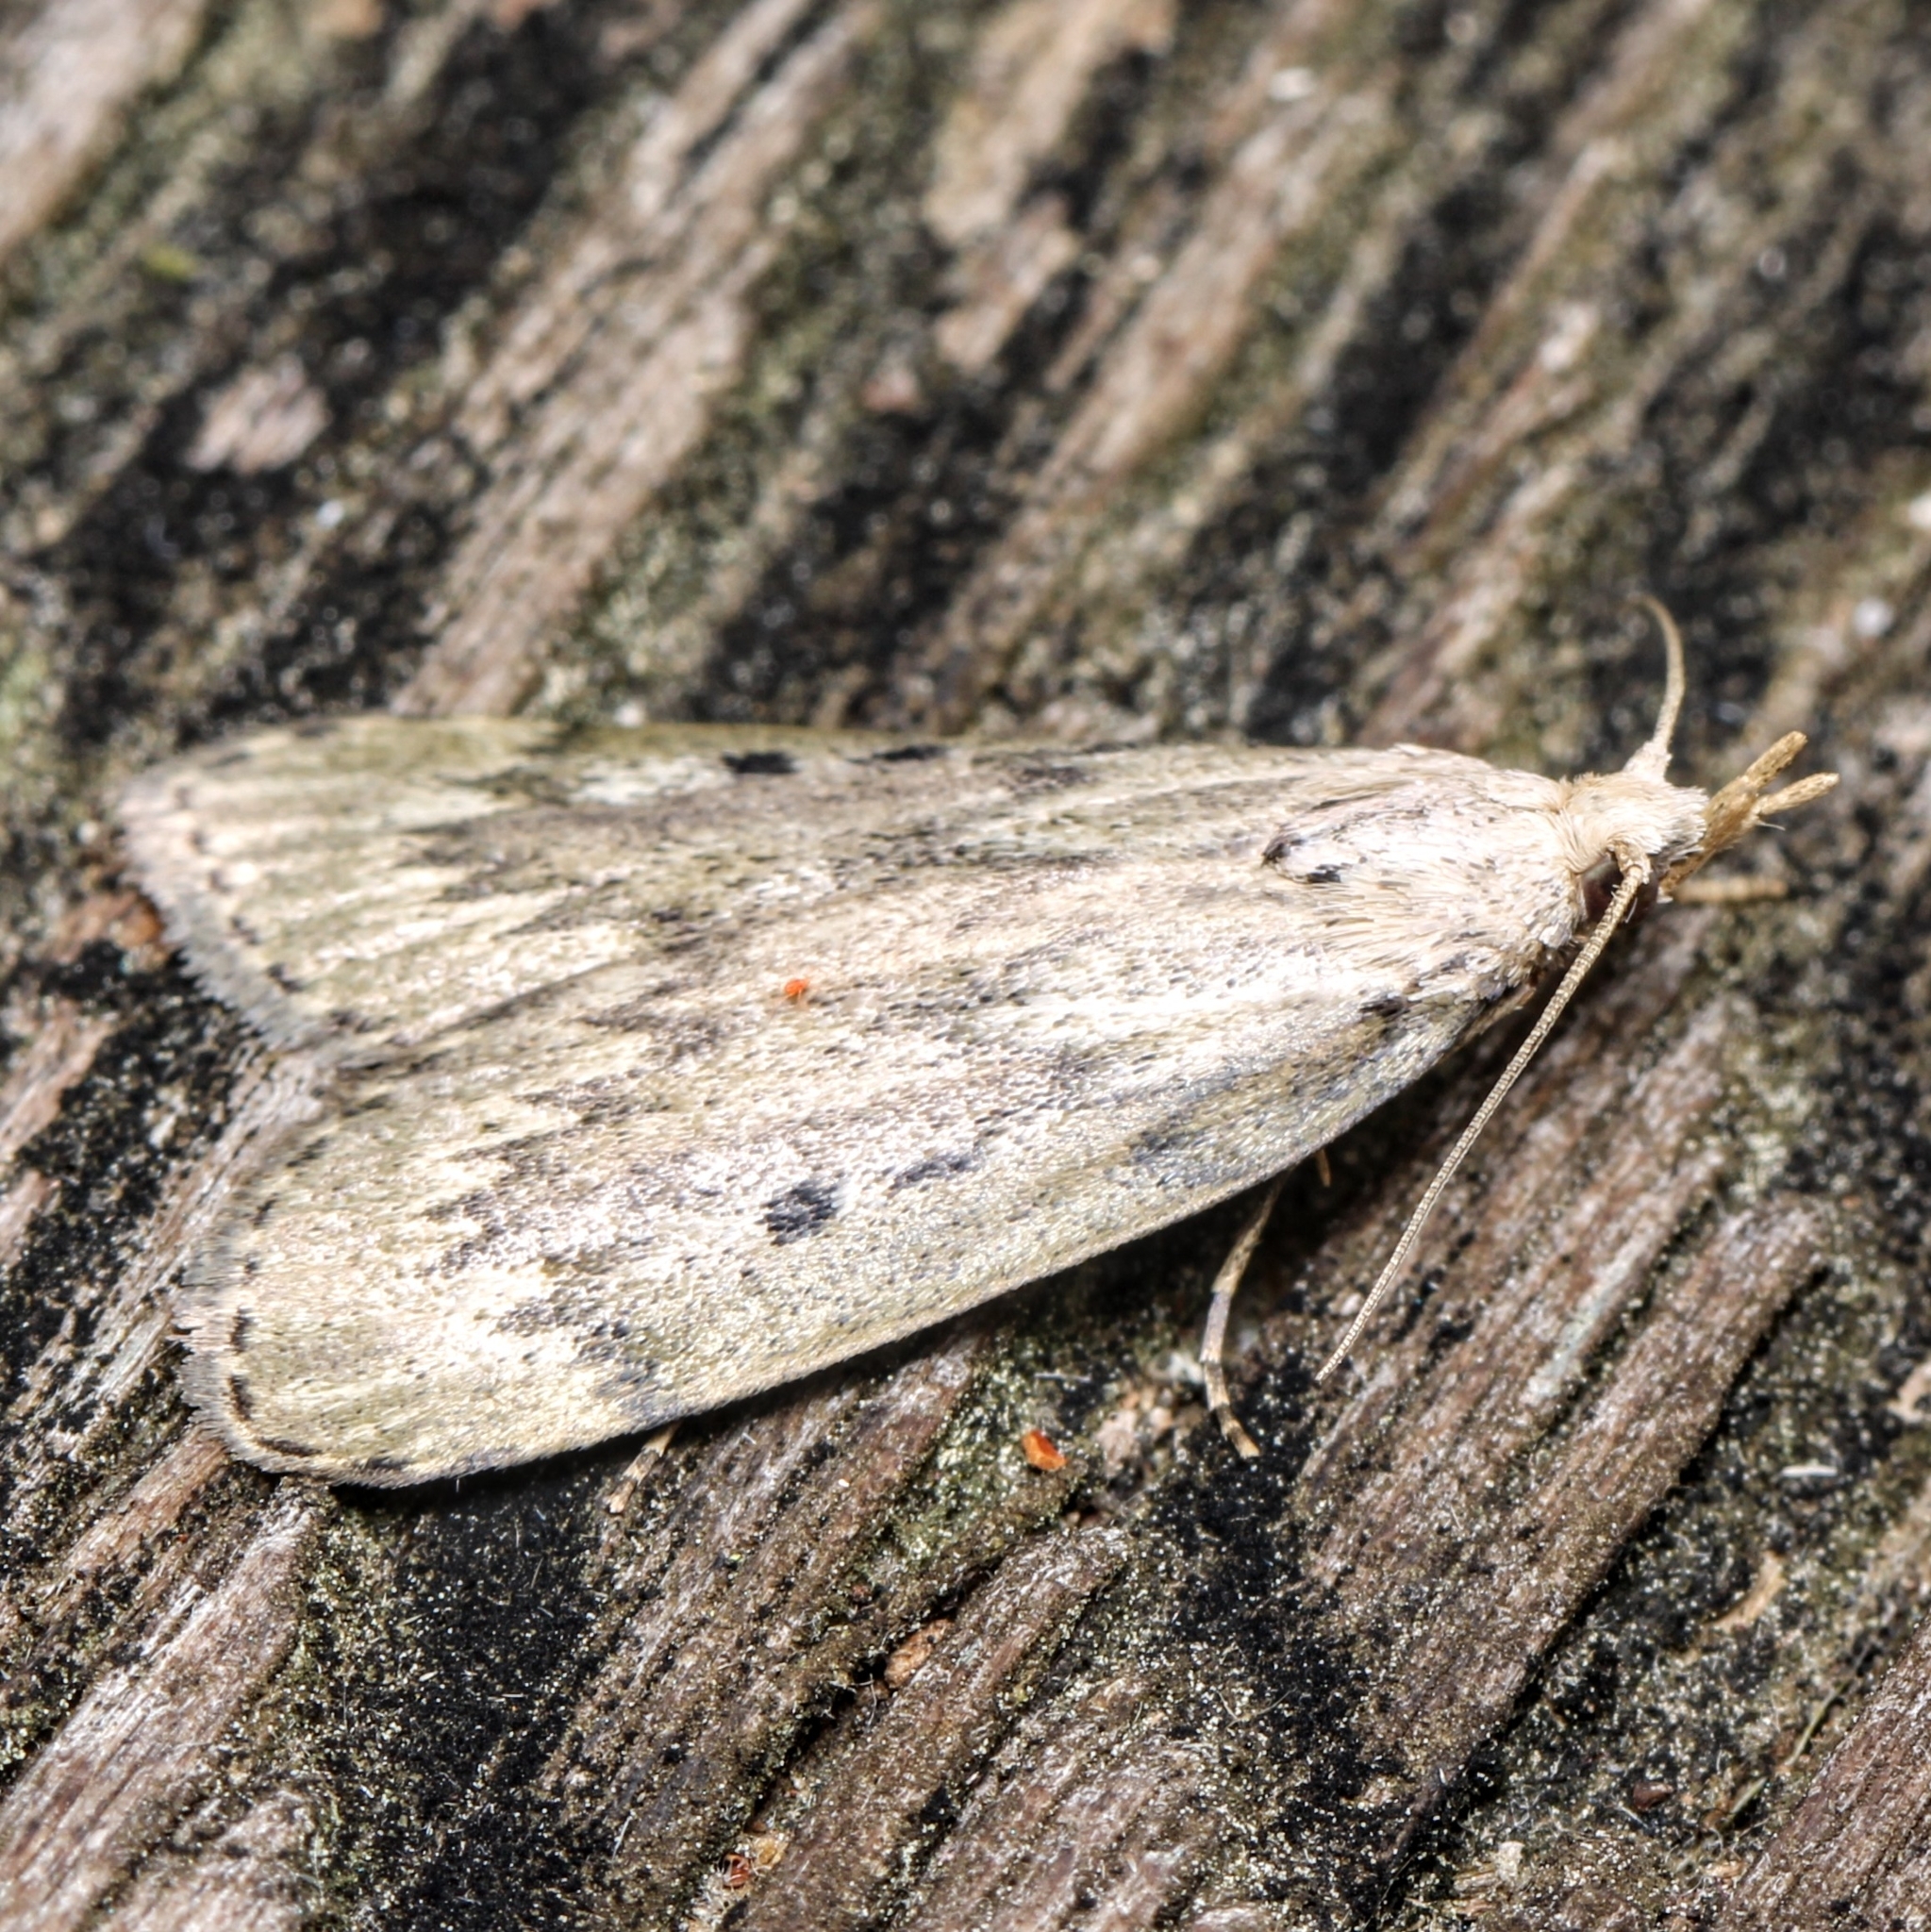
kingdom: Animalia
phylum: Arthropoda
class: Insecta
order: Lepidoptera
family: Pyralidae
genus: Aphomia
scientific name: Aphomia sociella
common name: Bee moth
